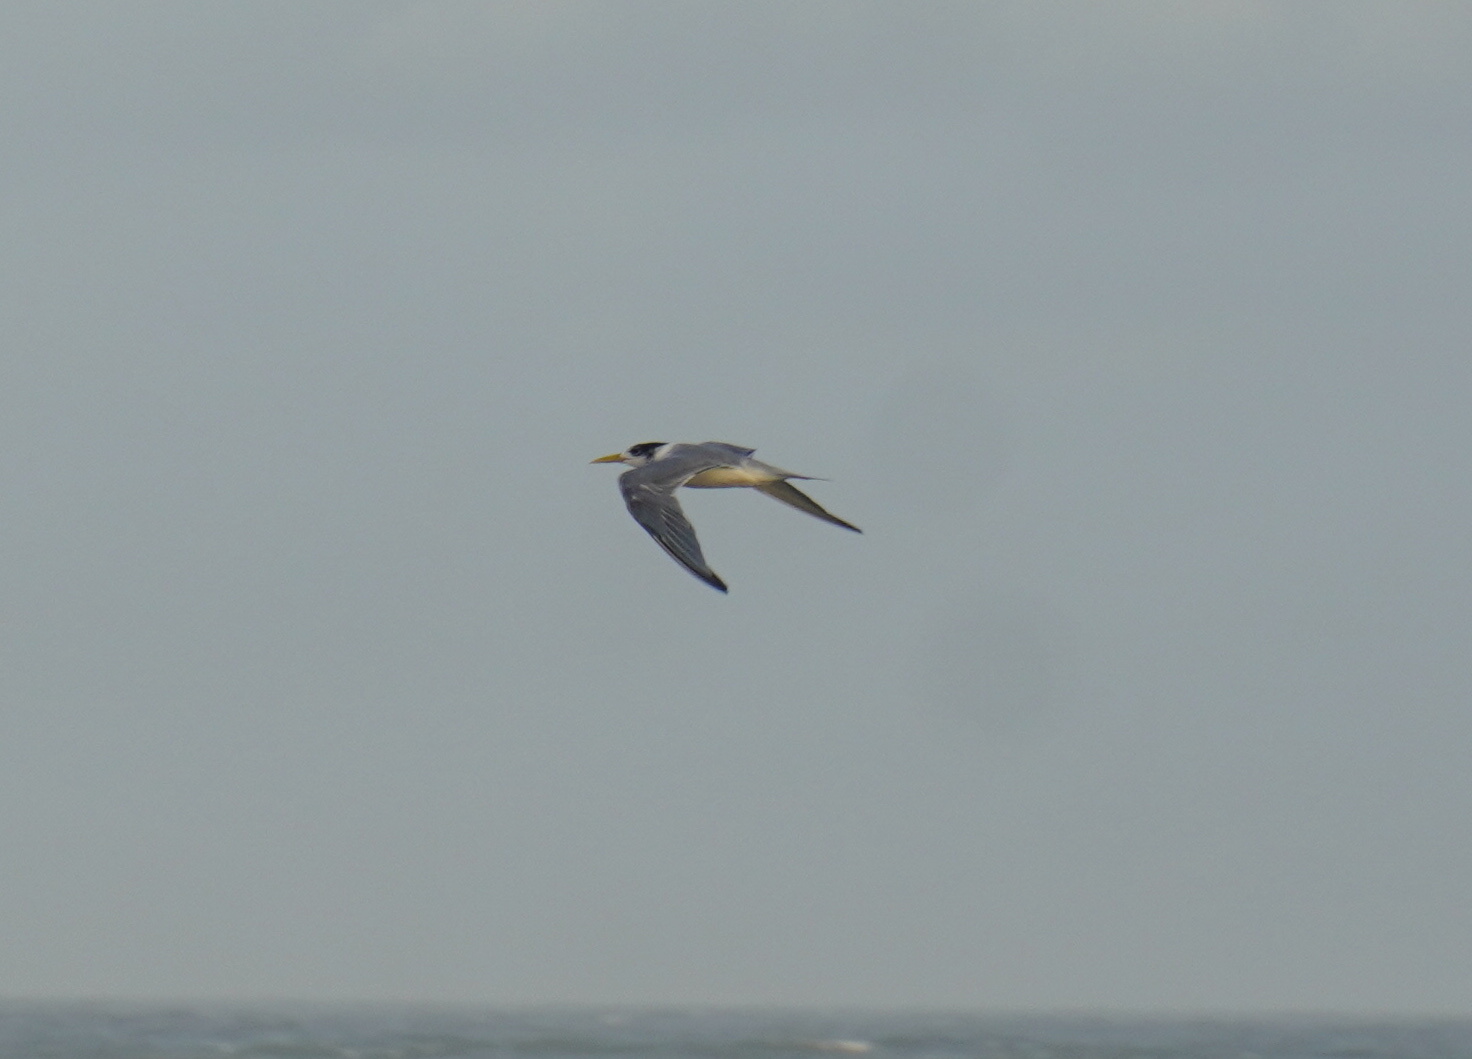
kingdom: Animalia
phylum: Chordata
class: Aves
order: Charadriiformes
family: Laridae
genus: Thalasseus
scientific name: Thalasseus bergii
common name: Greater crested tern
